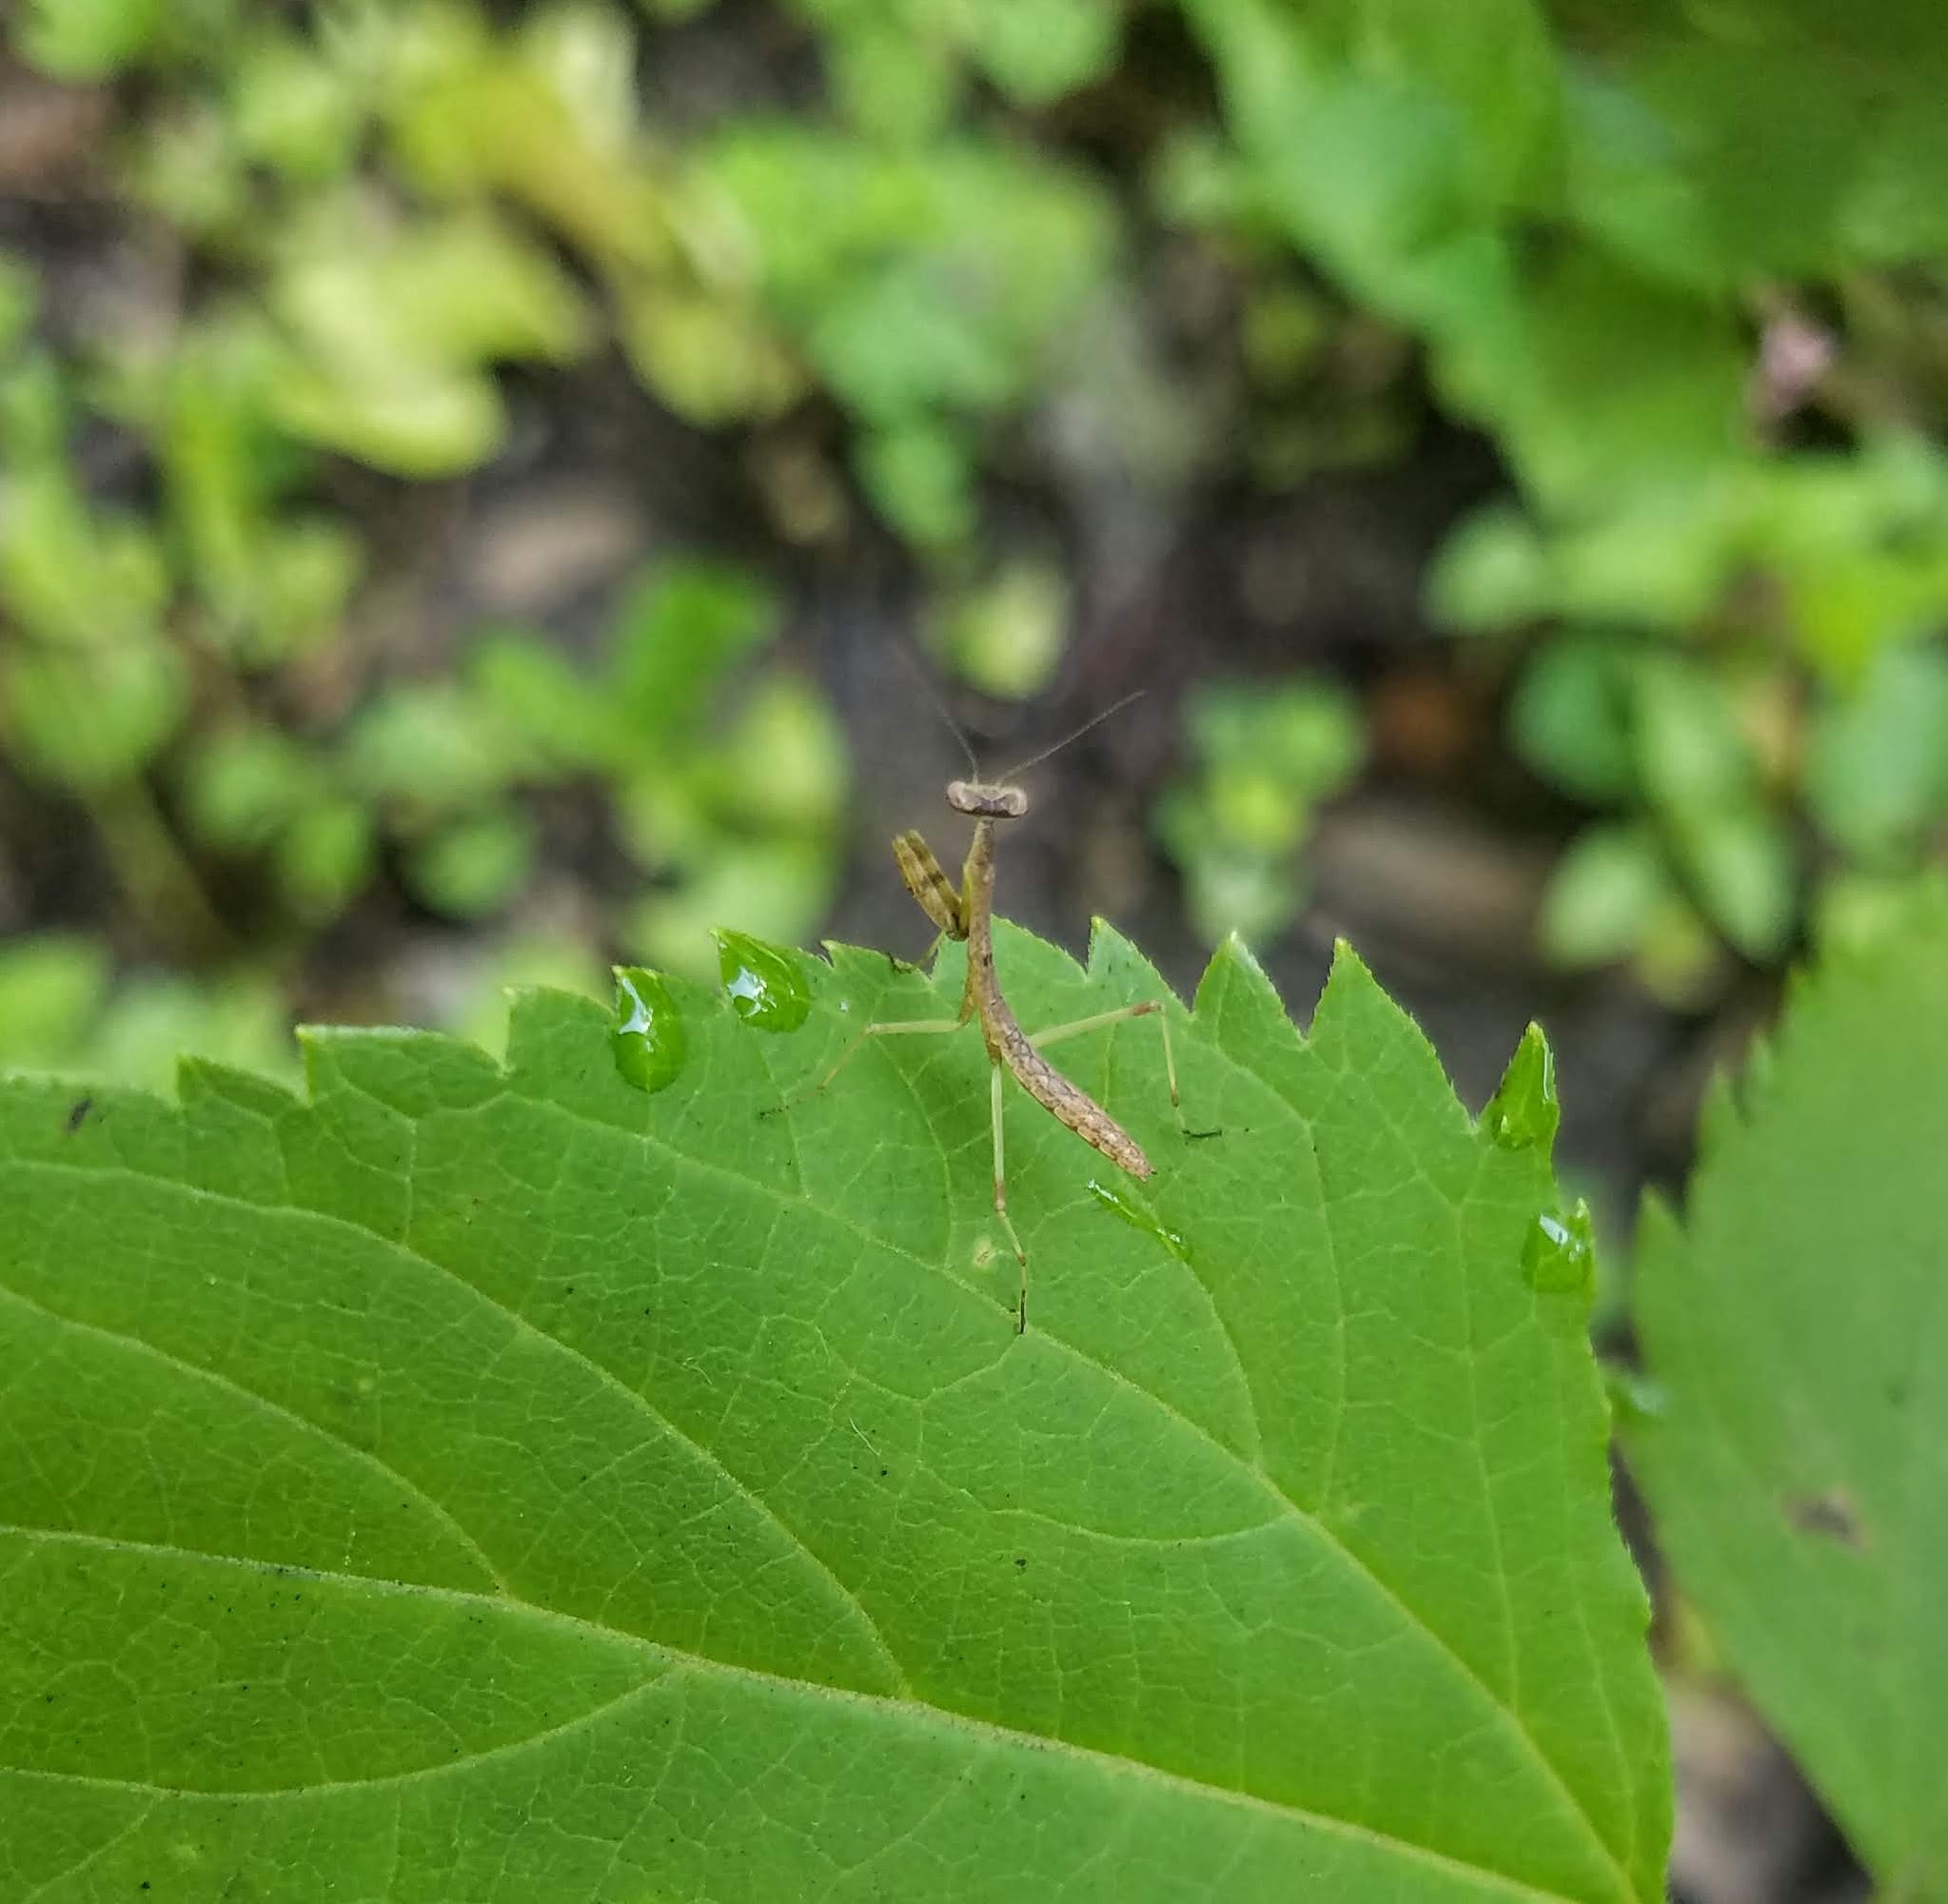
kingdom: Animalia
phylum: Arthropoda
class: Insecta
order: Mantodea
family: Mantidae
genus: Stagmomantis
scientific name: Stagmomantis carolina
